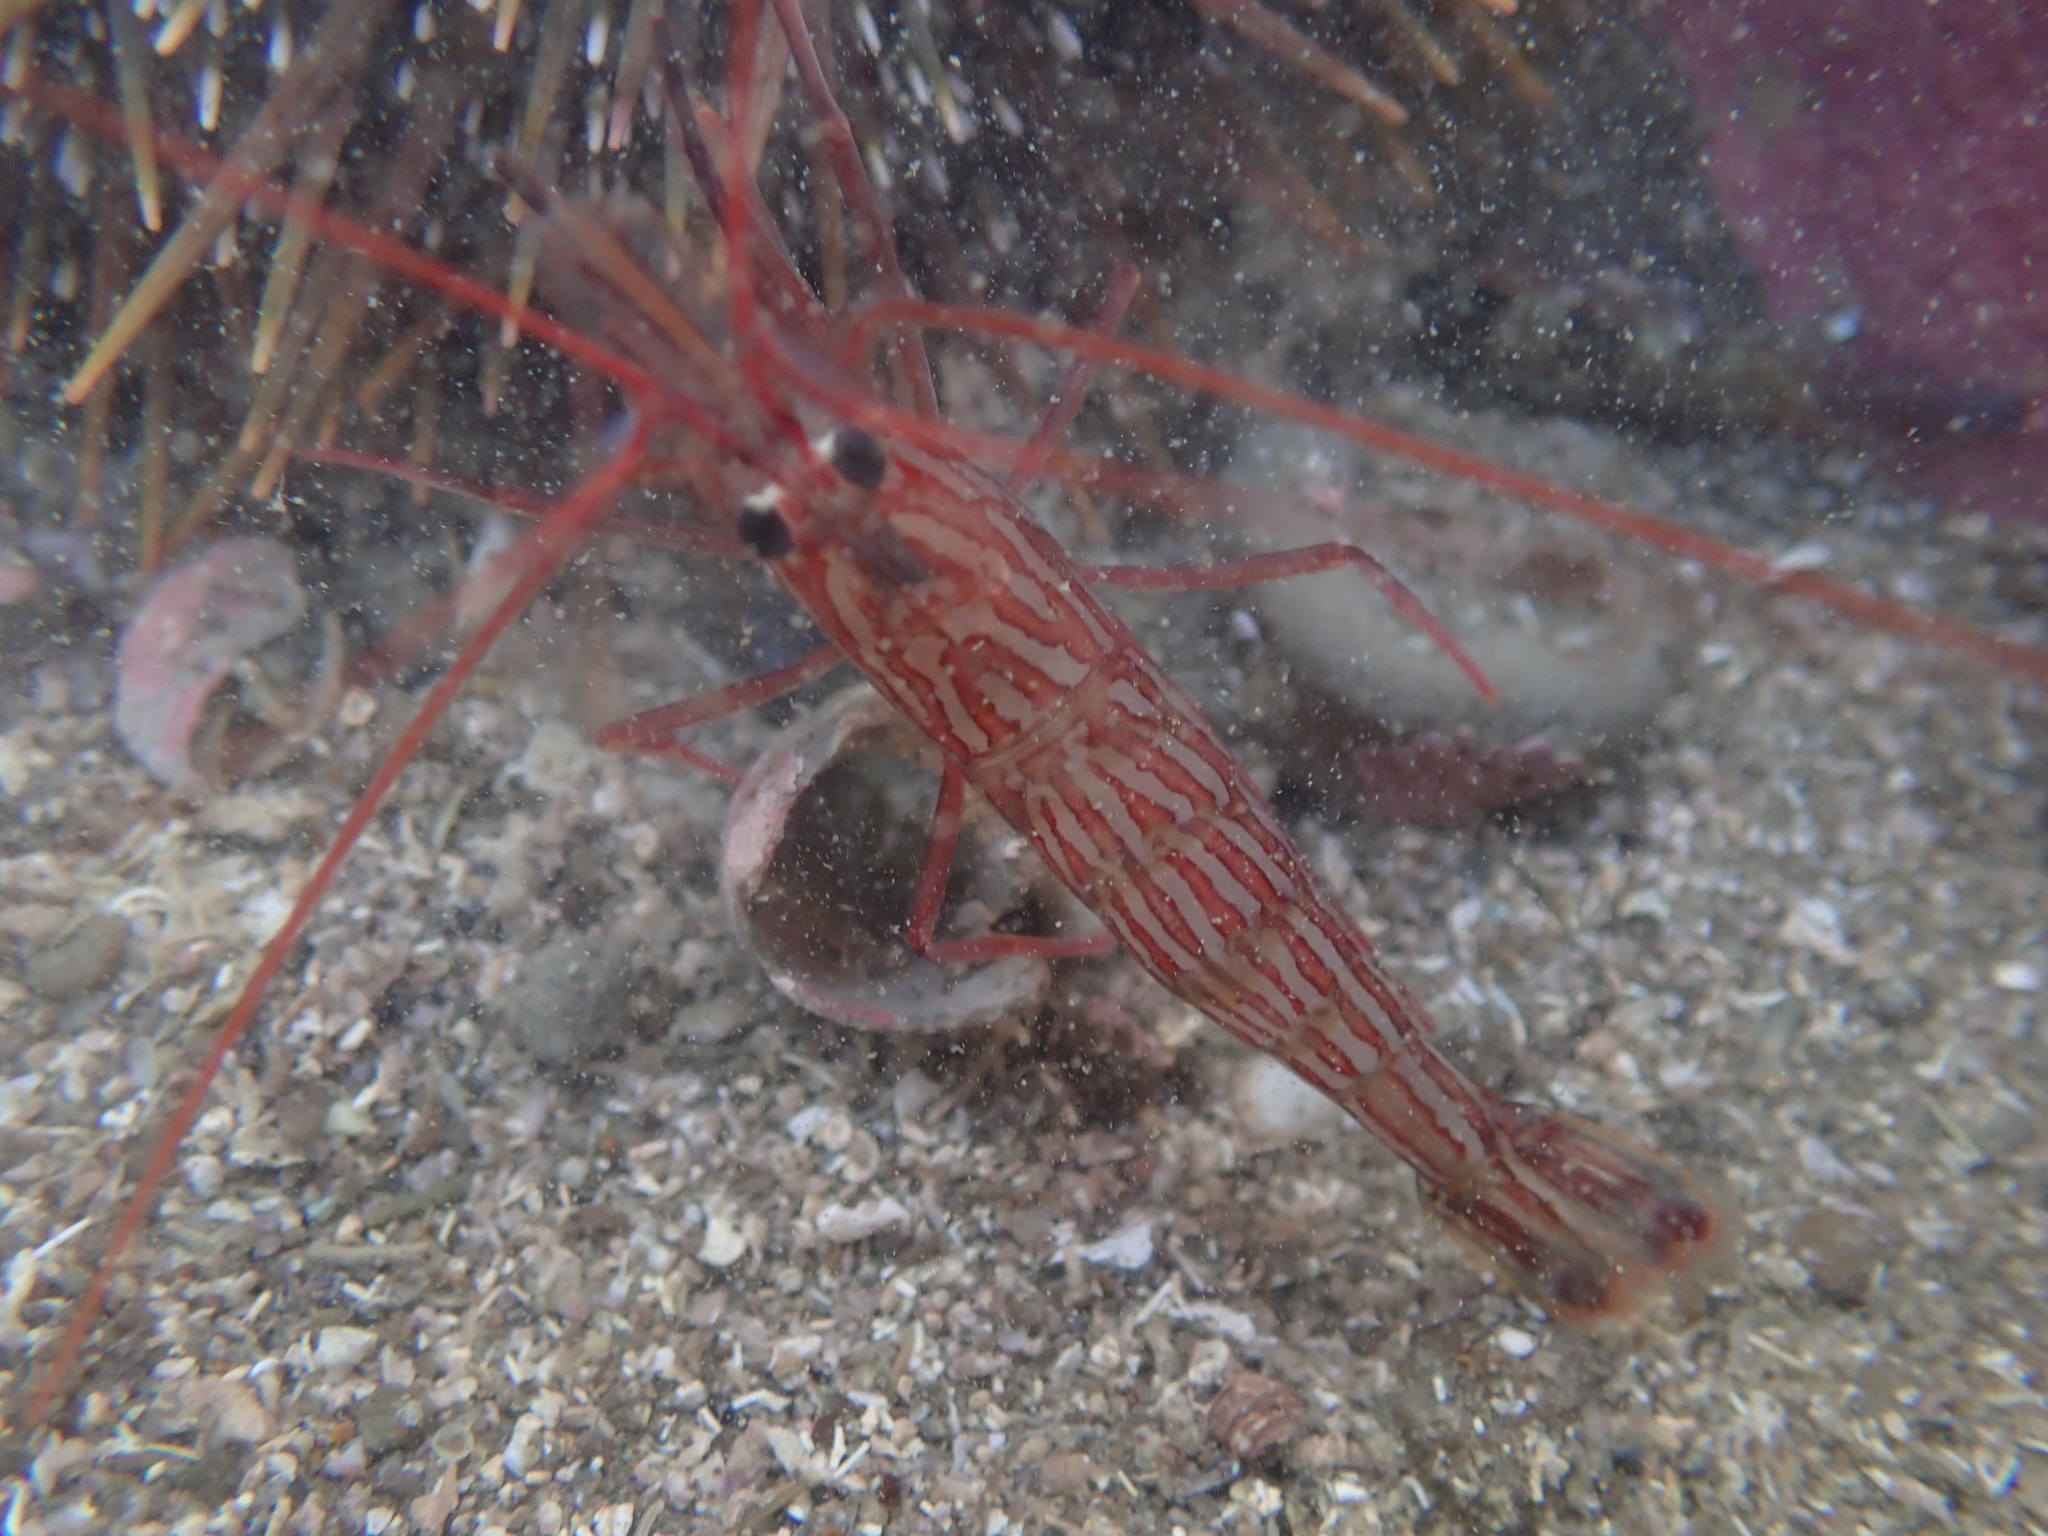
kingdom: Animalia
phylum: Arthropoda
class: Malacostraca
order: Decapoda
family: Lysmatidae
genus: Lysmata
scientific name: Lysmata californica
